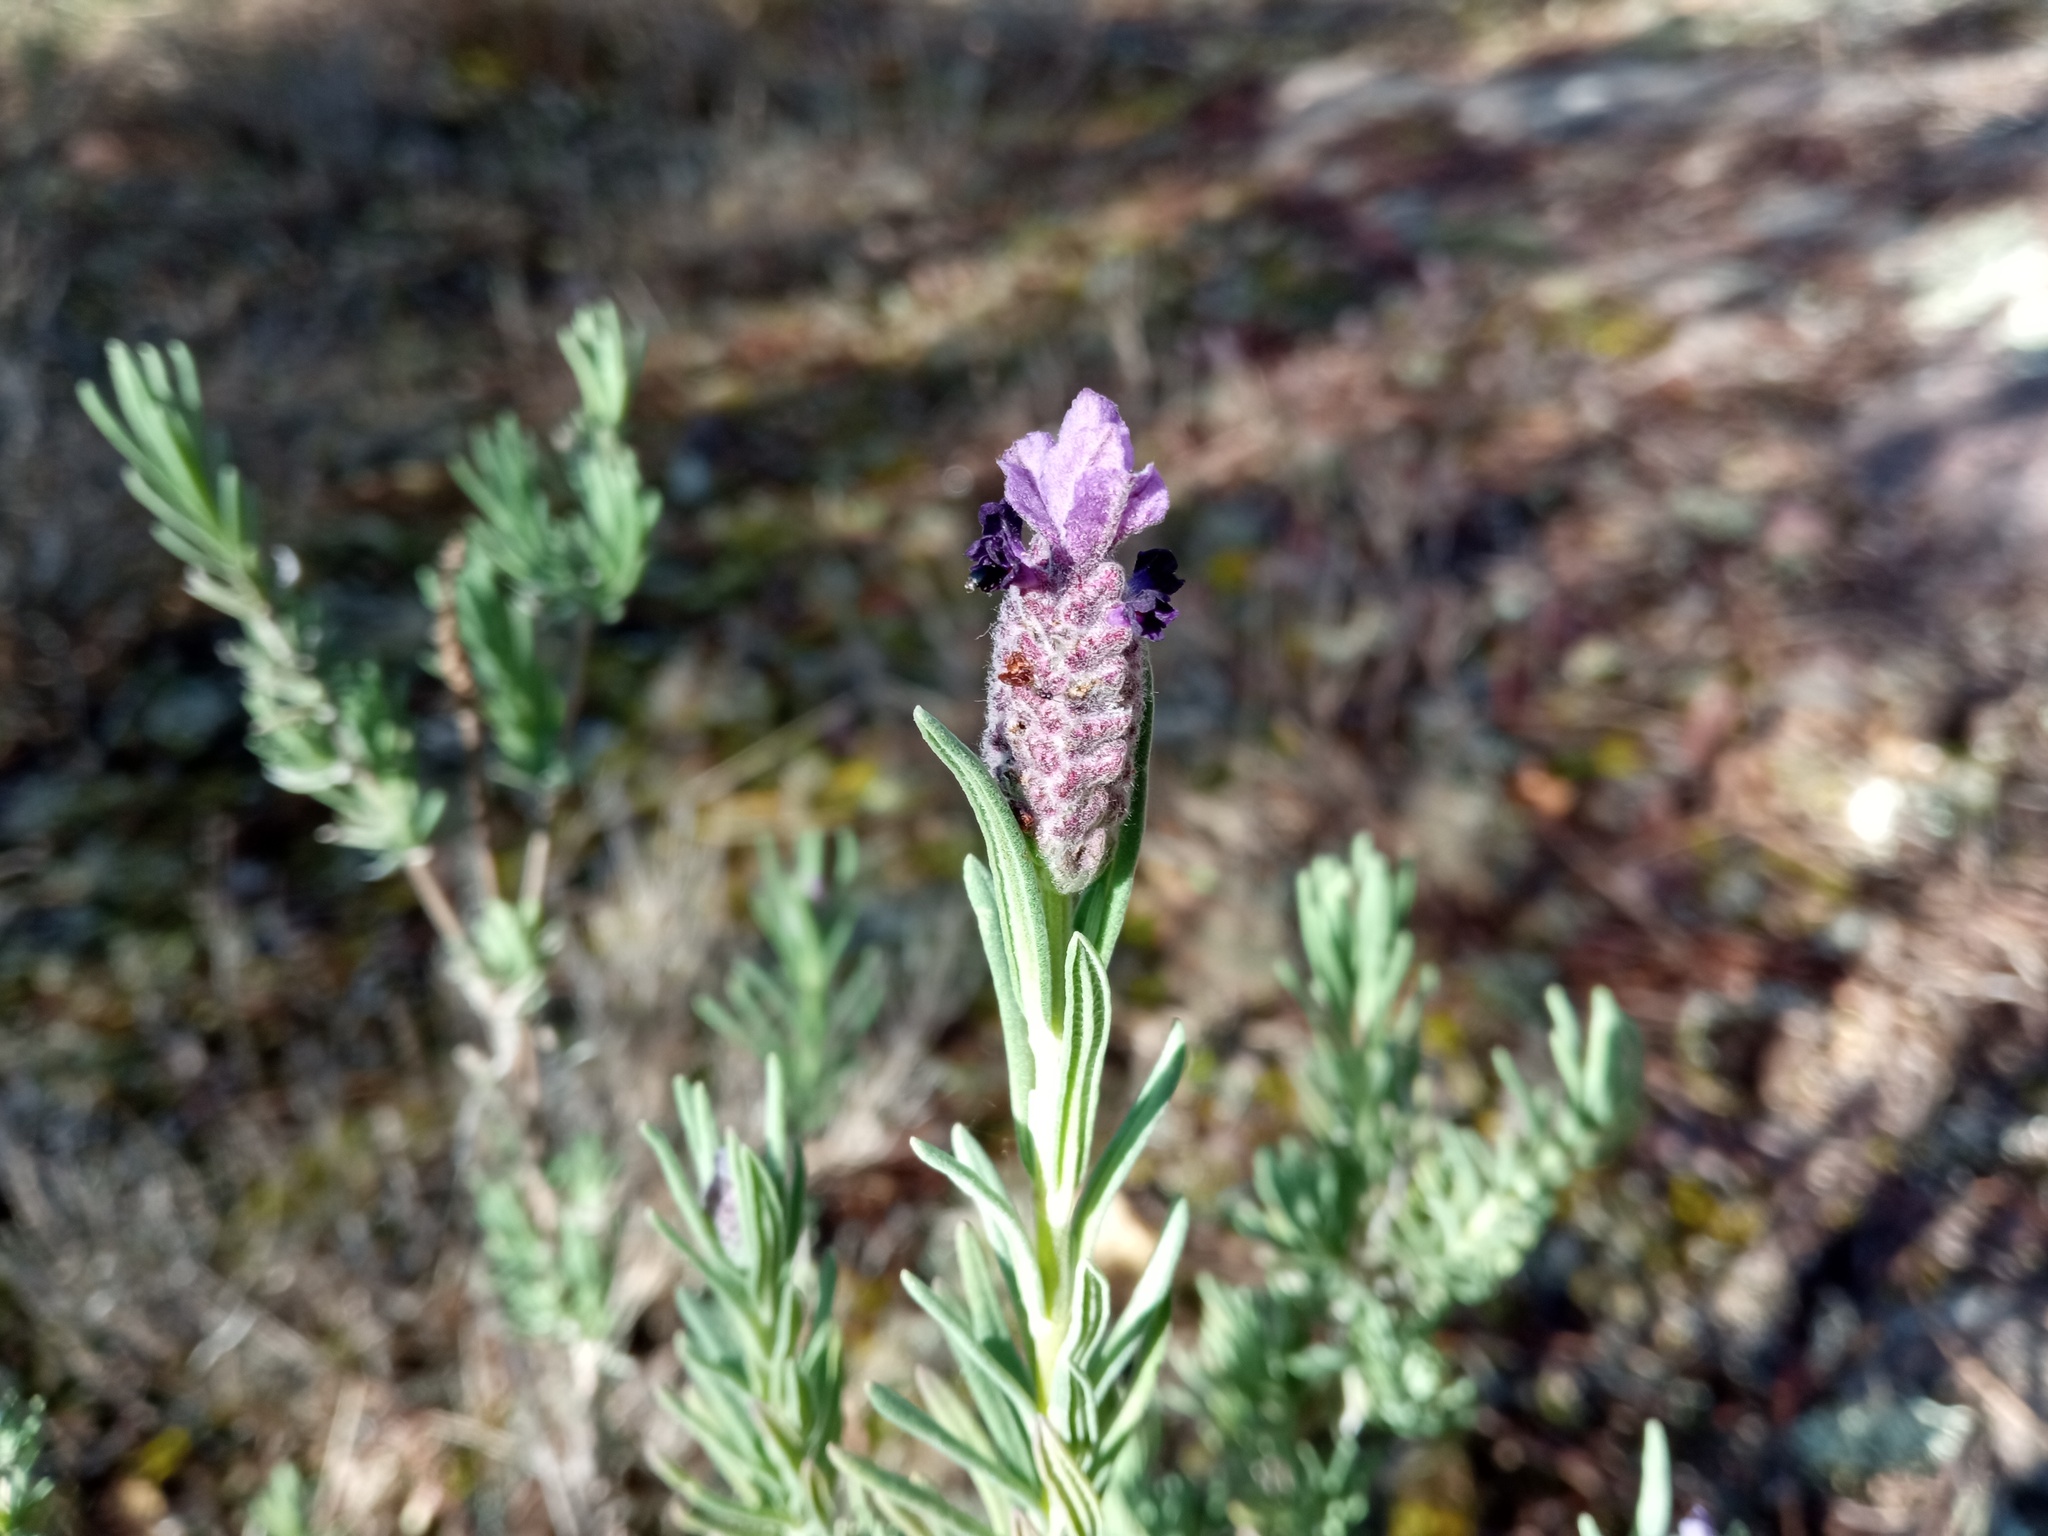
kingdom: Plantae
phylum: Tracheophyta
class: Magnoliopsida
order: Lamiales
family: Lamiaceae
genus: Lavandula
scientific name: Lavandula stoechas
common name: French lavender
